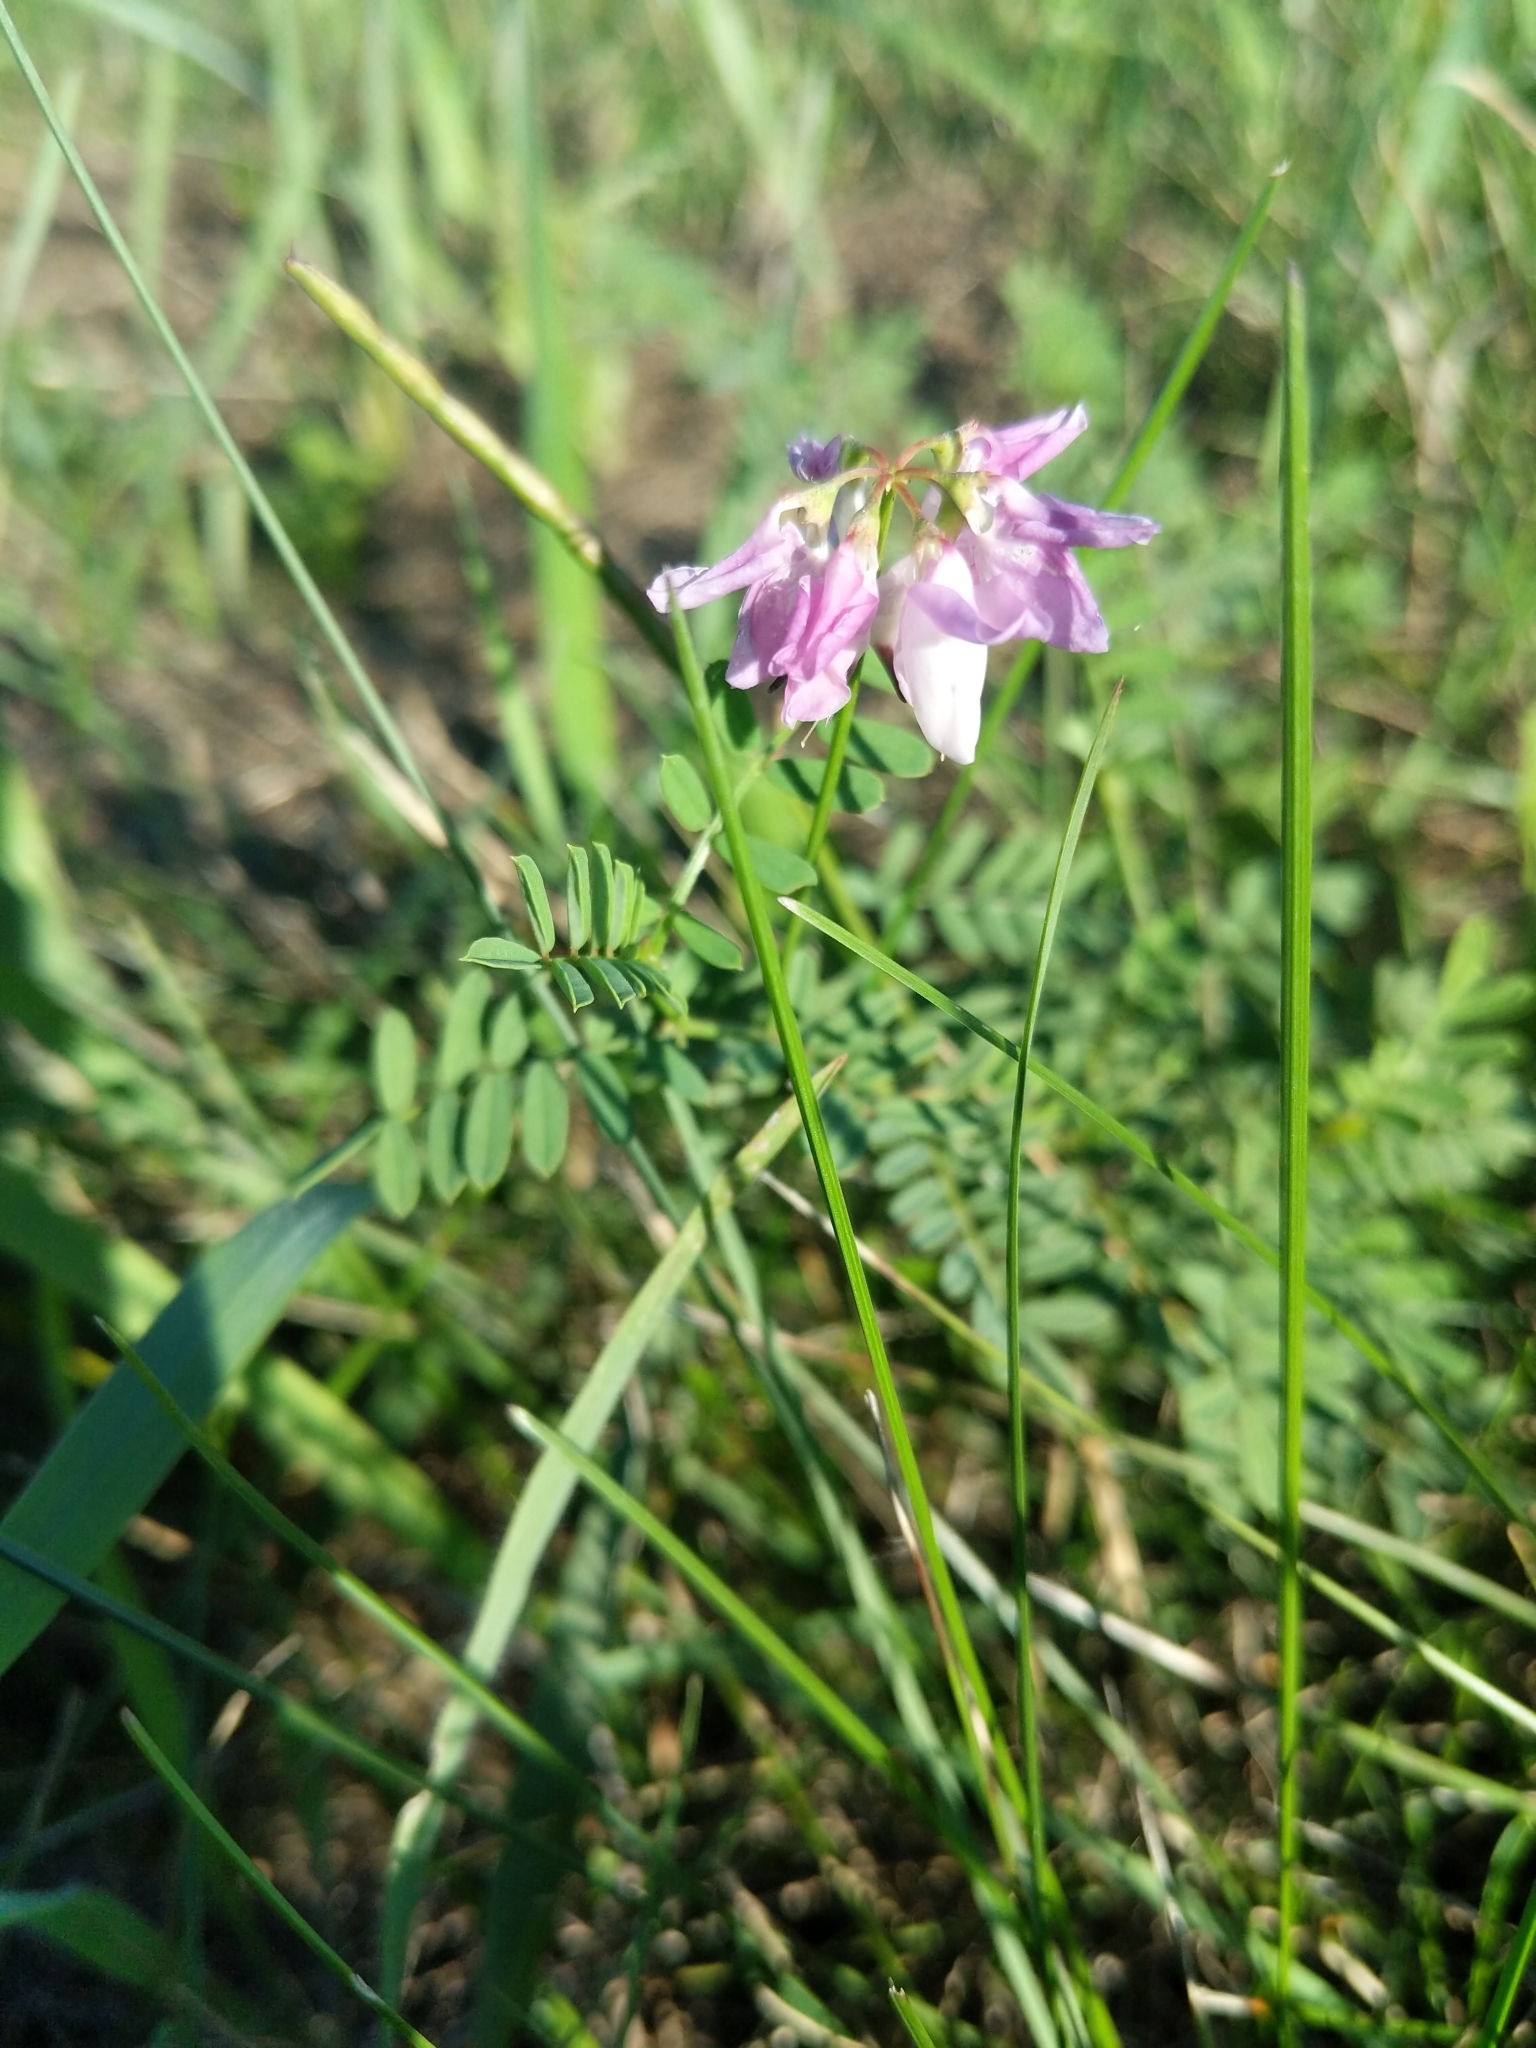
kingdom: Plantae
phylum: Tracheophyta
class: Magnoliopsida
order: Fabales
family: Fabaceae
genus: Coronilla
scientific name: Coronilla varia
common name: Crownvetch
